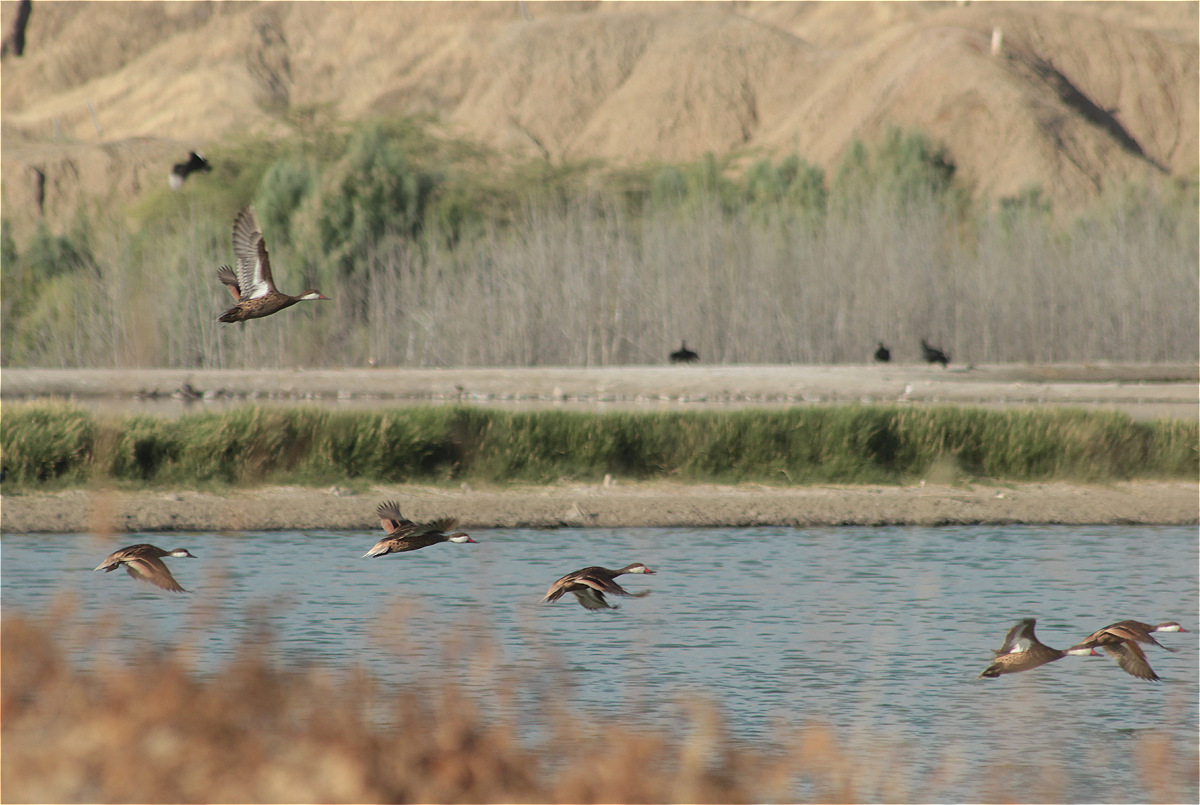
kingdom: Animalia
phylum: Chordata
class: Aves
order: Anseriformes
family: Anatidae
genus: Anas
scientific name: Anas bahamensis
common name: White-cheeked pintail
